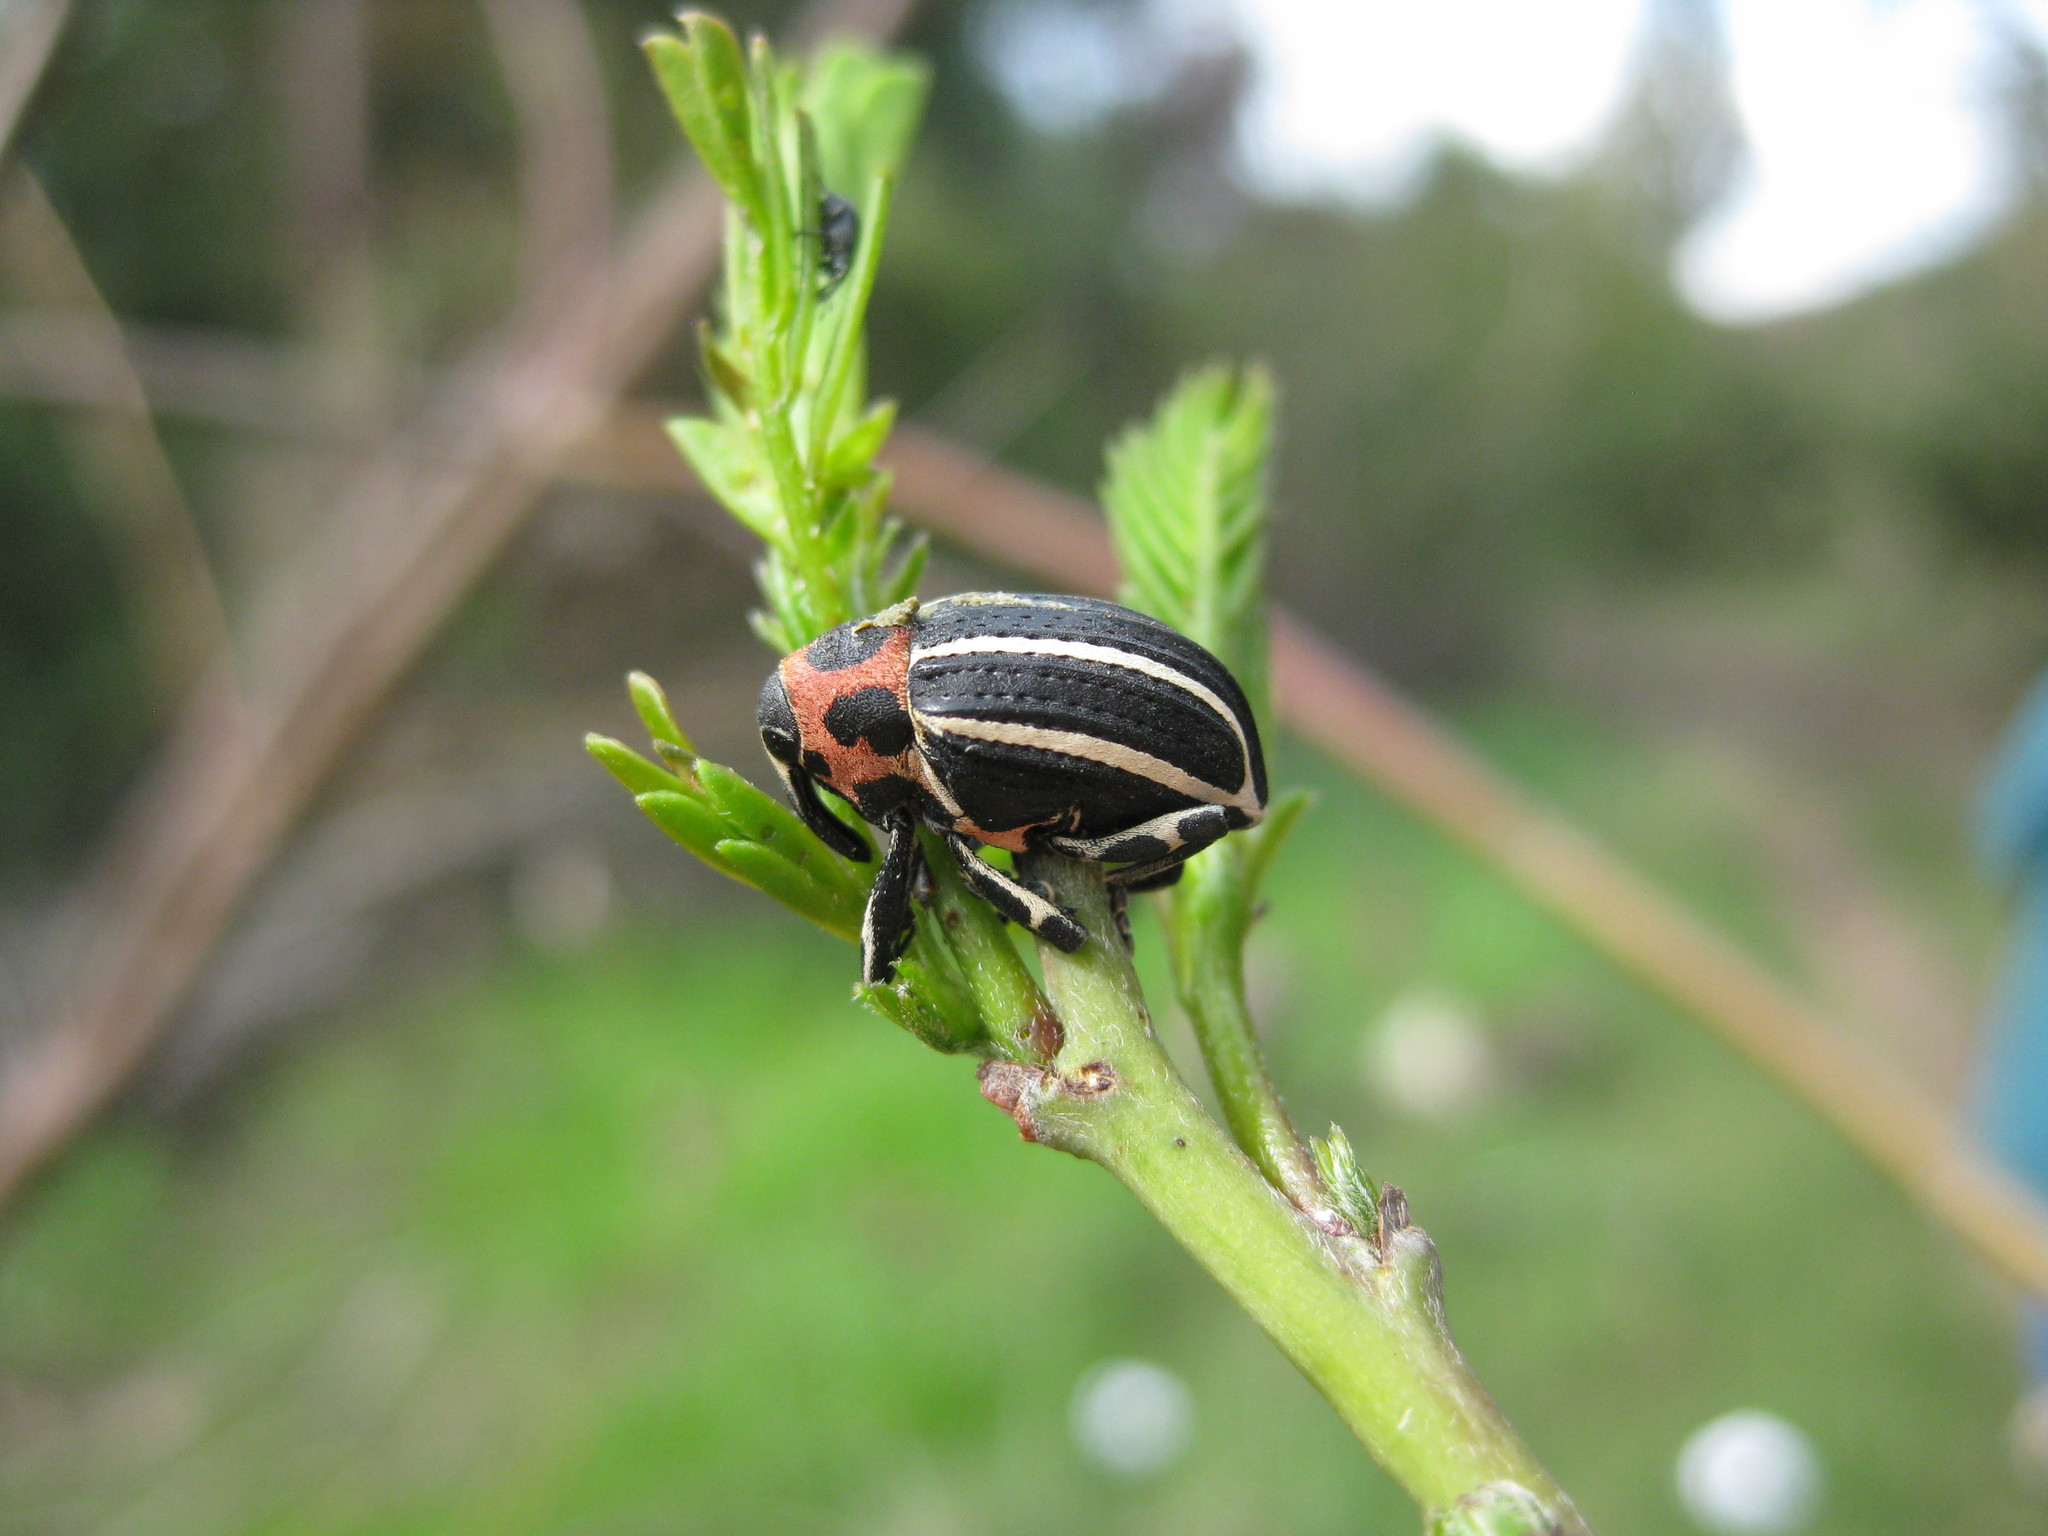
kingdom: Animalia
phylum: Arthropoda
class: Insecta
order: Coleoptera
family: Curculionidae
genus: Neodiplogrammus
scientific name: Neodiplogrammus
